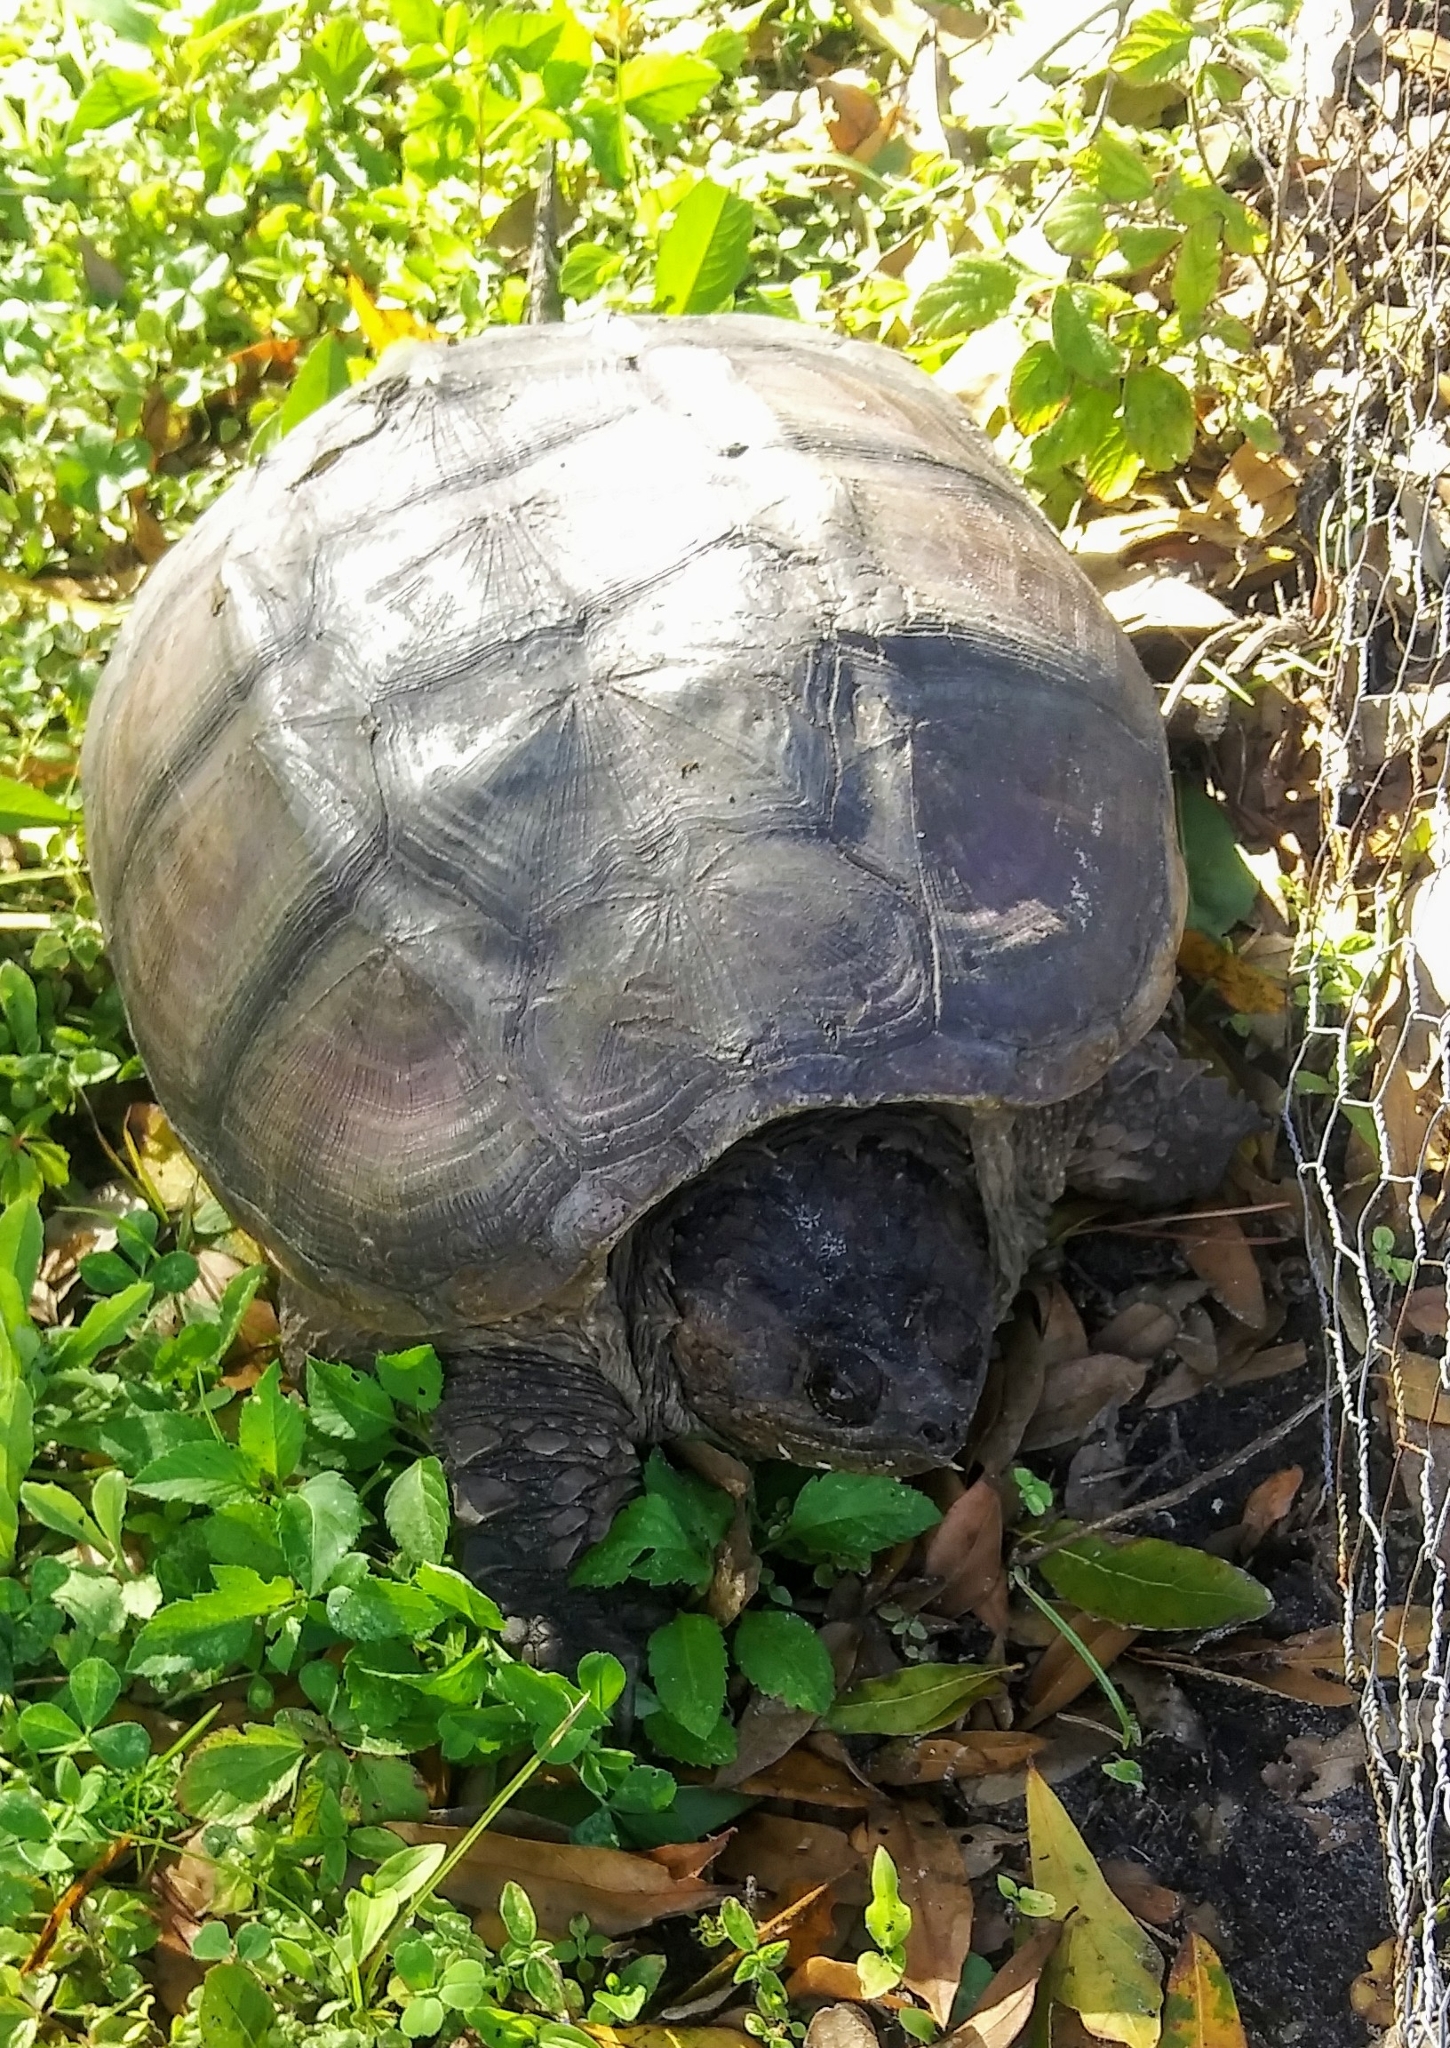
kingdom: Animalia
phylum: Chordata
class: Testudines
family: Chelydridae
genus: Chelydra
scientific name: Chelydra serpentina
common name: Common snapping turtle
